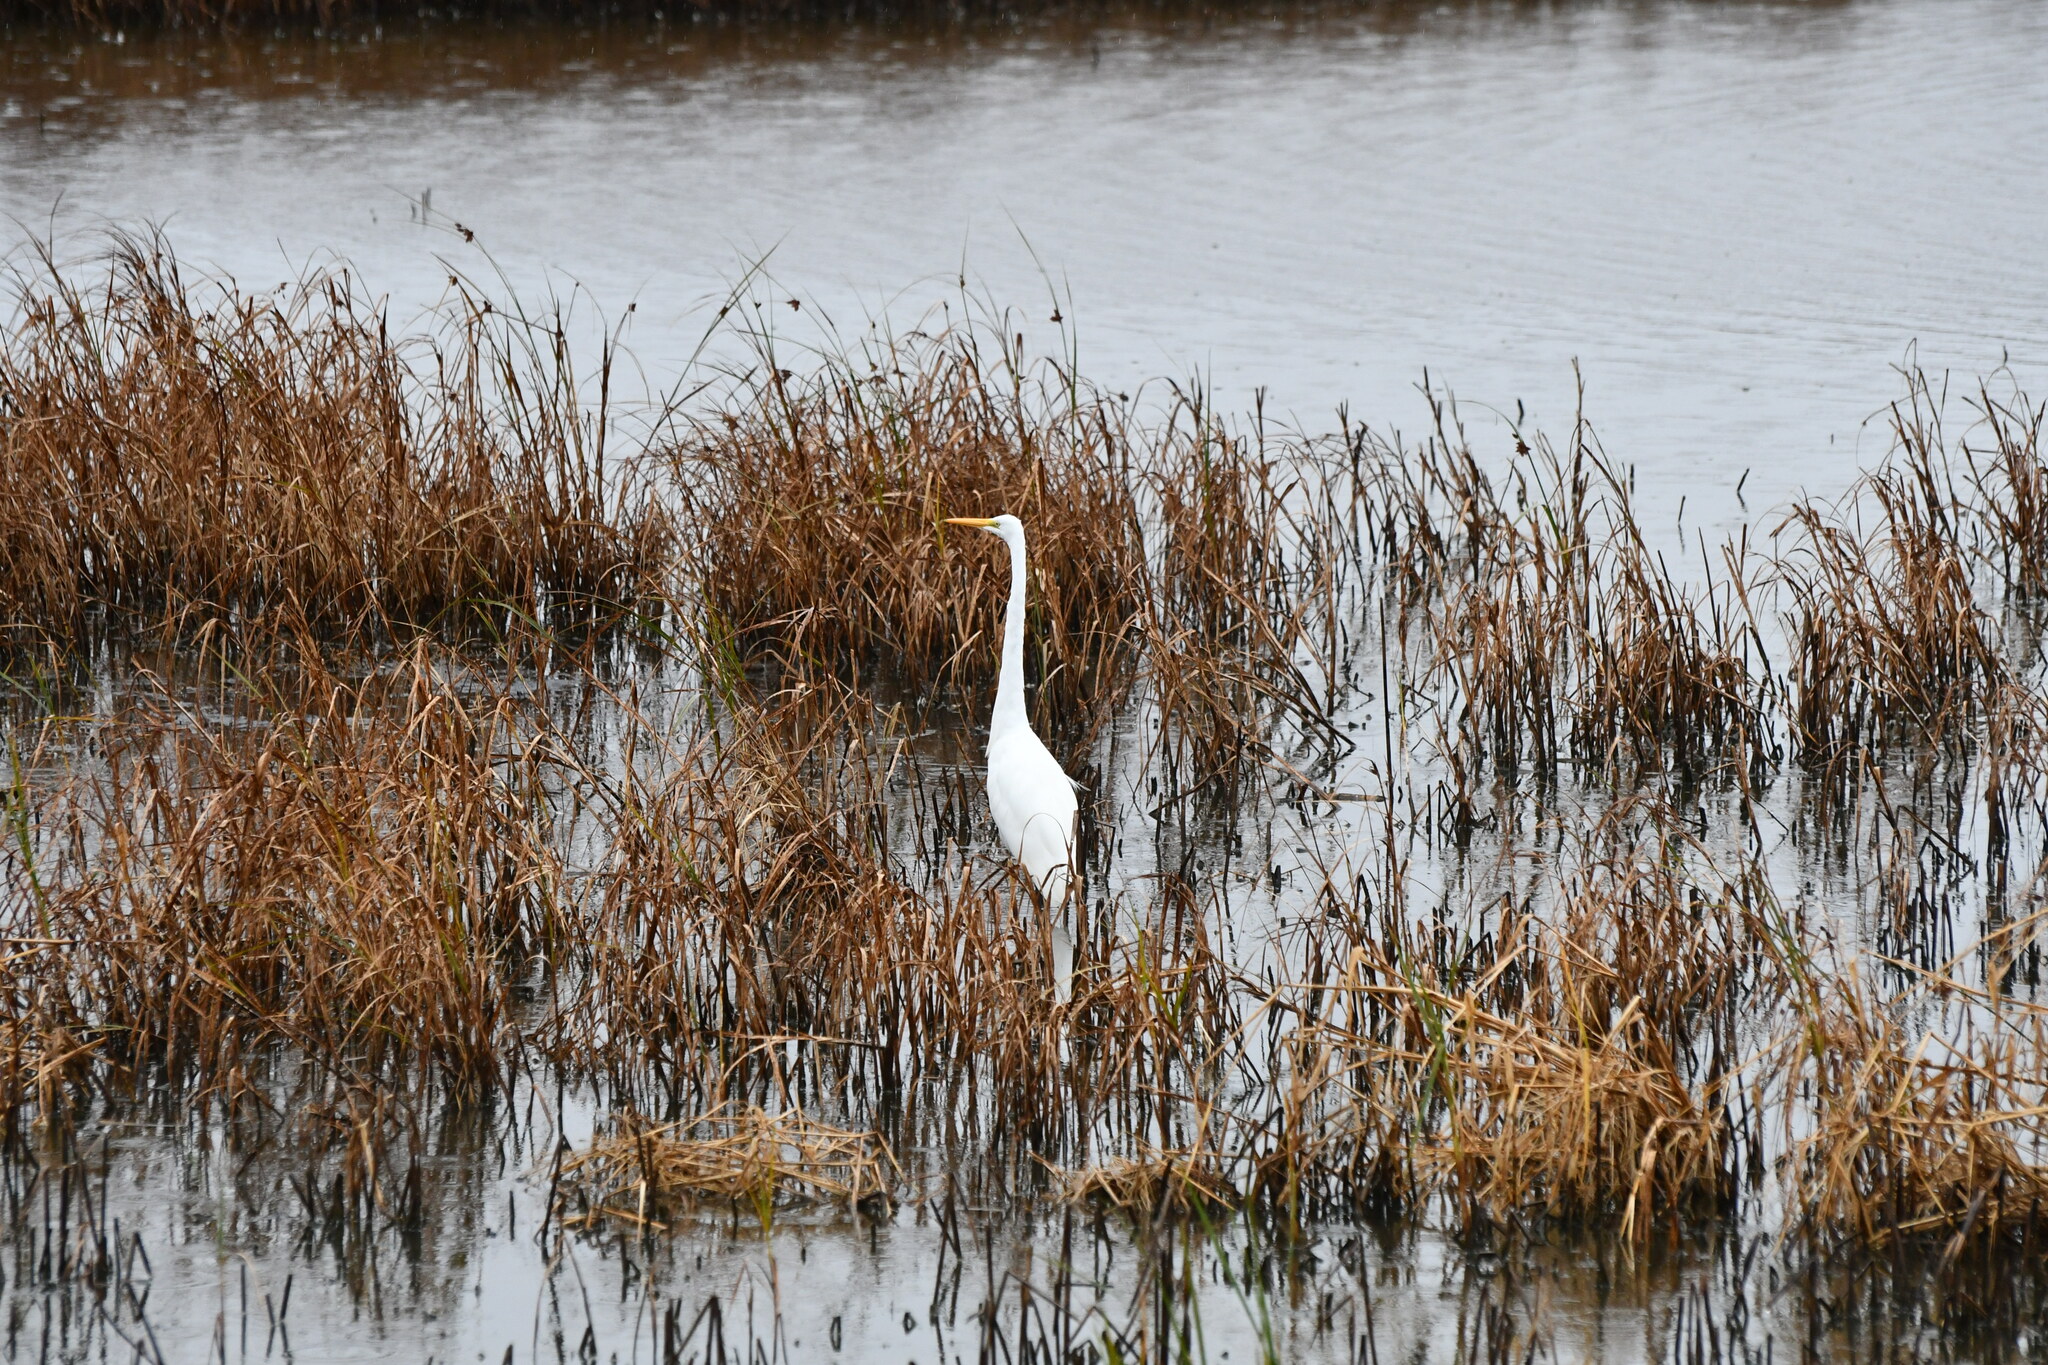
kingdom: Animalia
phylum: Chordata
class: Aves
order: Pelecaniformes
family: Ardeidae
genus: Ardea
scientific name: Ardea alba
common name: Great egret
